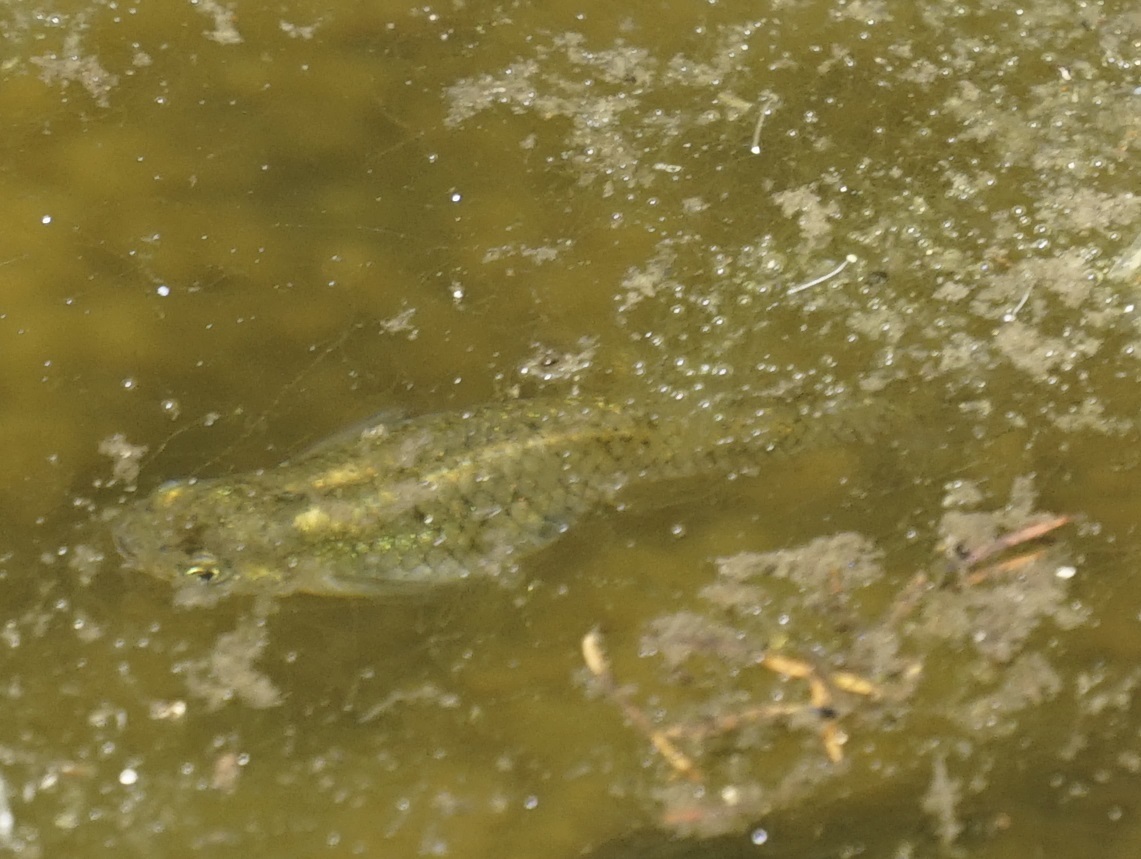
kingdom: Animalia
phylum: Chordata
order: Cyprinodontiformes
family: Poeciliidae
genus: Gambusia
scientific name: Gambusia holbrooki
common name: Eastern mosquitofish
